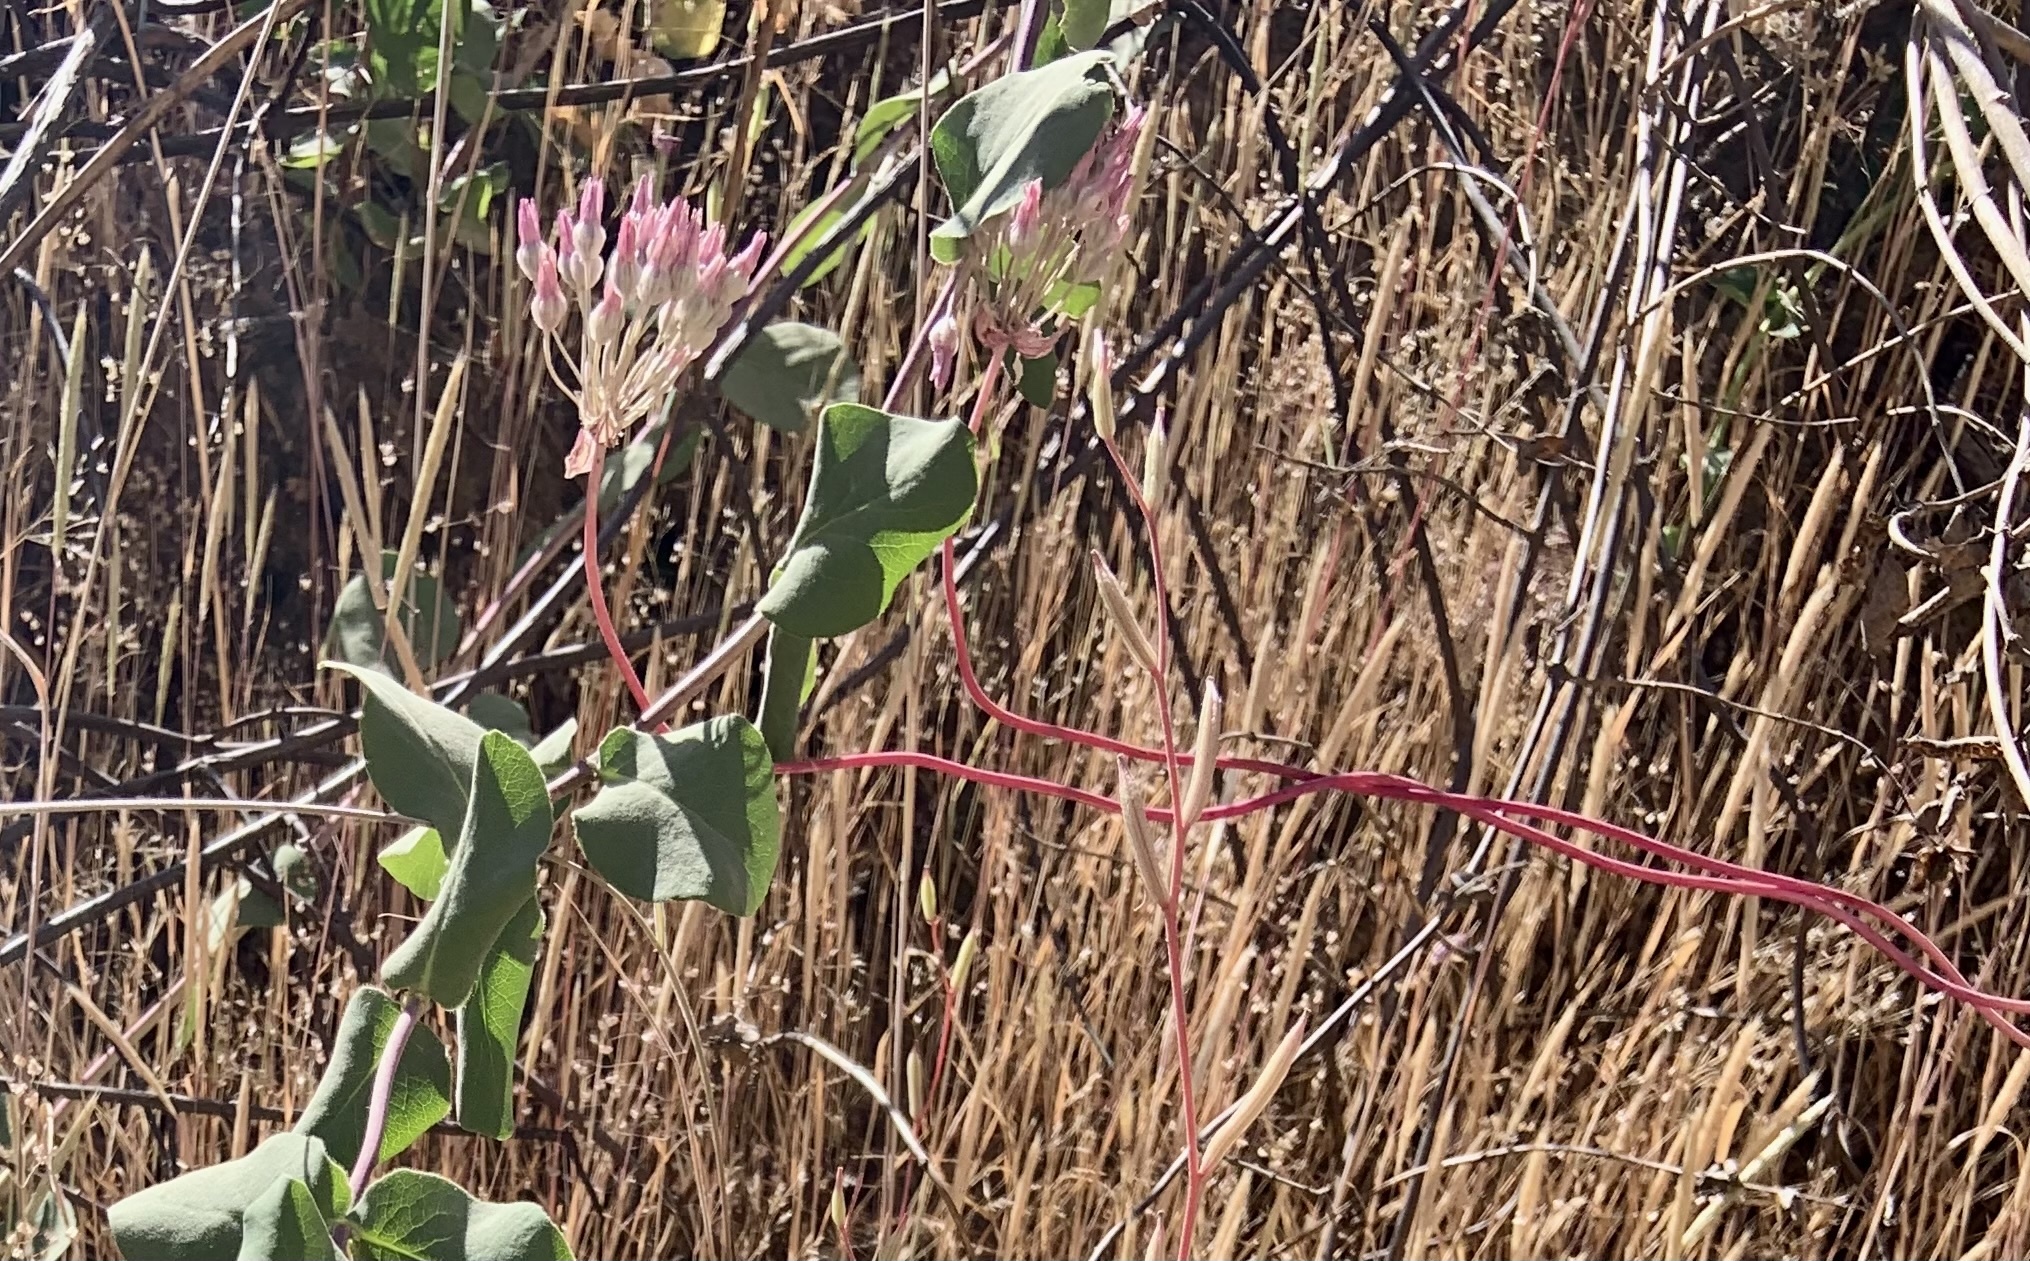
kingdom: Plantae
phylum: Tracheophyta
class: Liliopsida
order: Asparagales
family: Asparagaceae
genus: Dichelostemma
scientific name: Dichelostemma volubile
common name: Trining brodiaea
